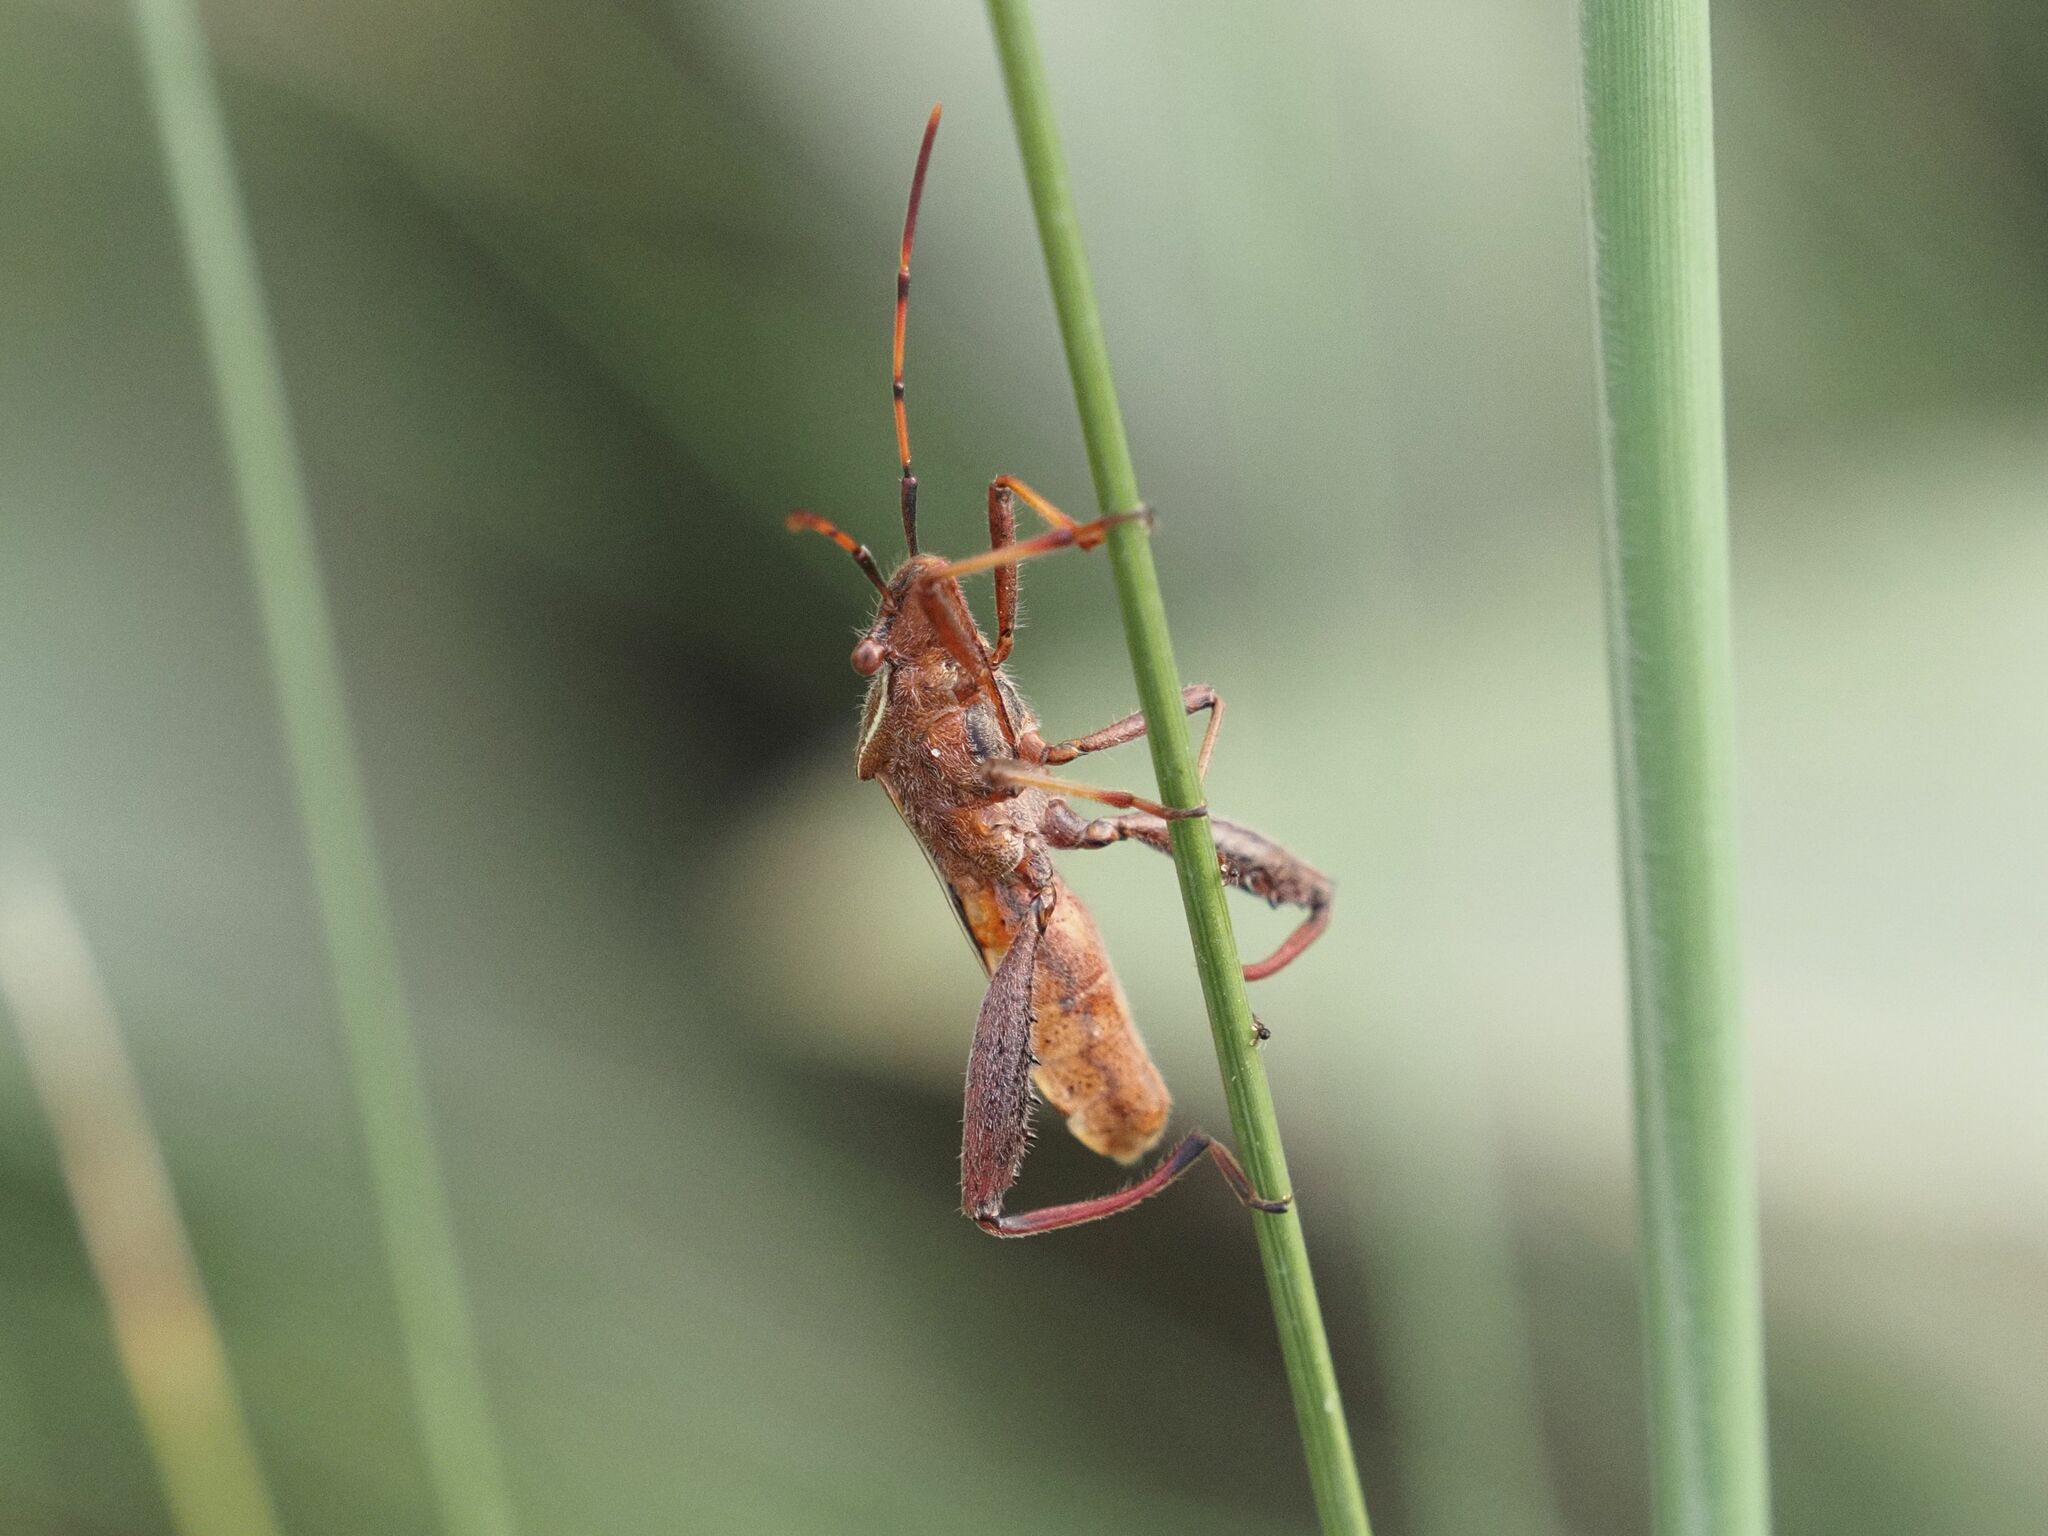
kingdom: Animalia
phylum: Arthropoda
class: Insecta
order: Hemiptera
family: Alydidae
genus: Camptopus
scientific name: Camptopus lateralis
